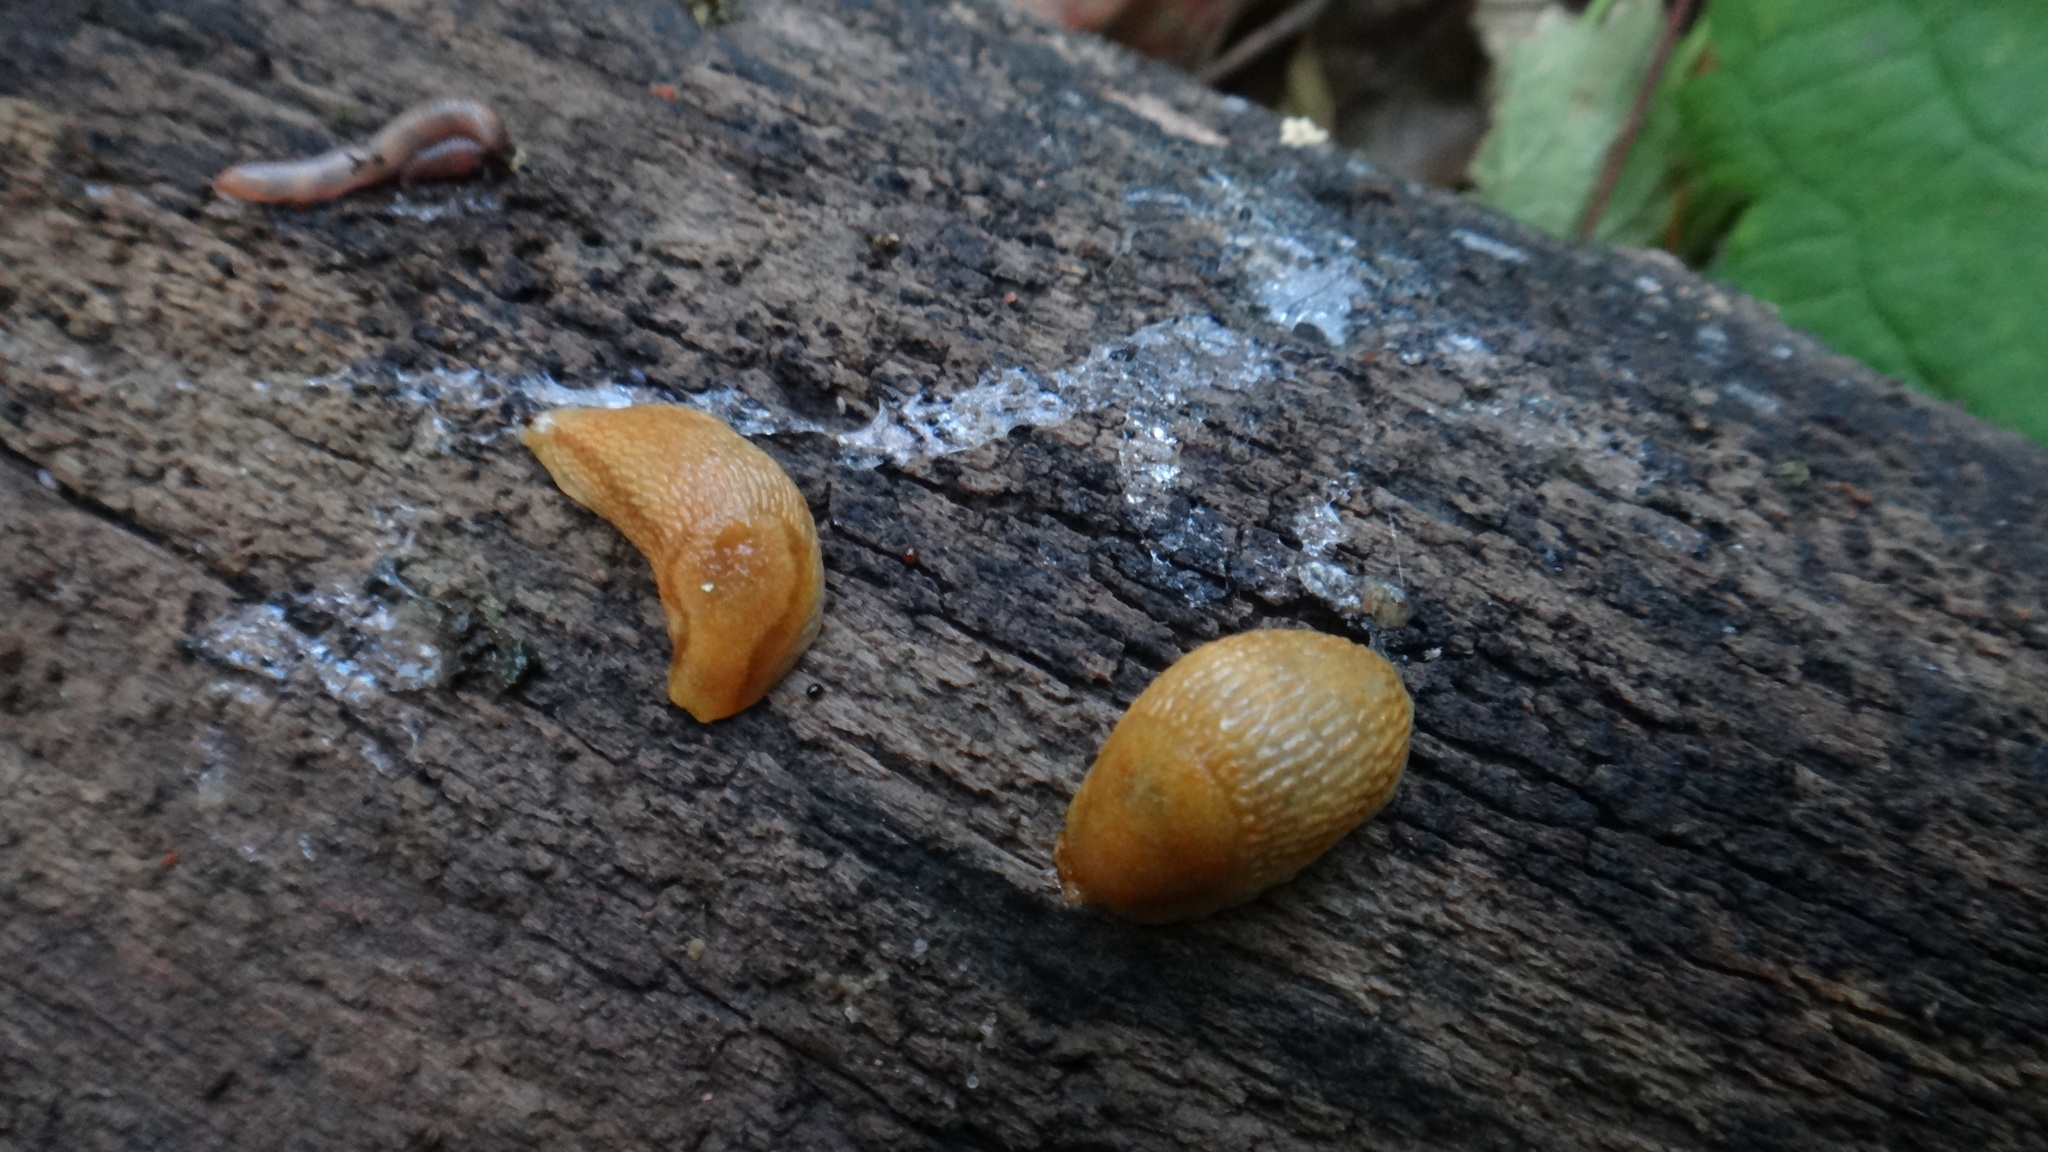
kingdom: Animalia
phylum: Mollusca
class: Gastropoda
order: Stylommatophora
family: Arionidae
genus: Arion
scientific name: Arion fuscus
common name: Northern dusky slug
